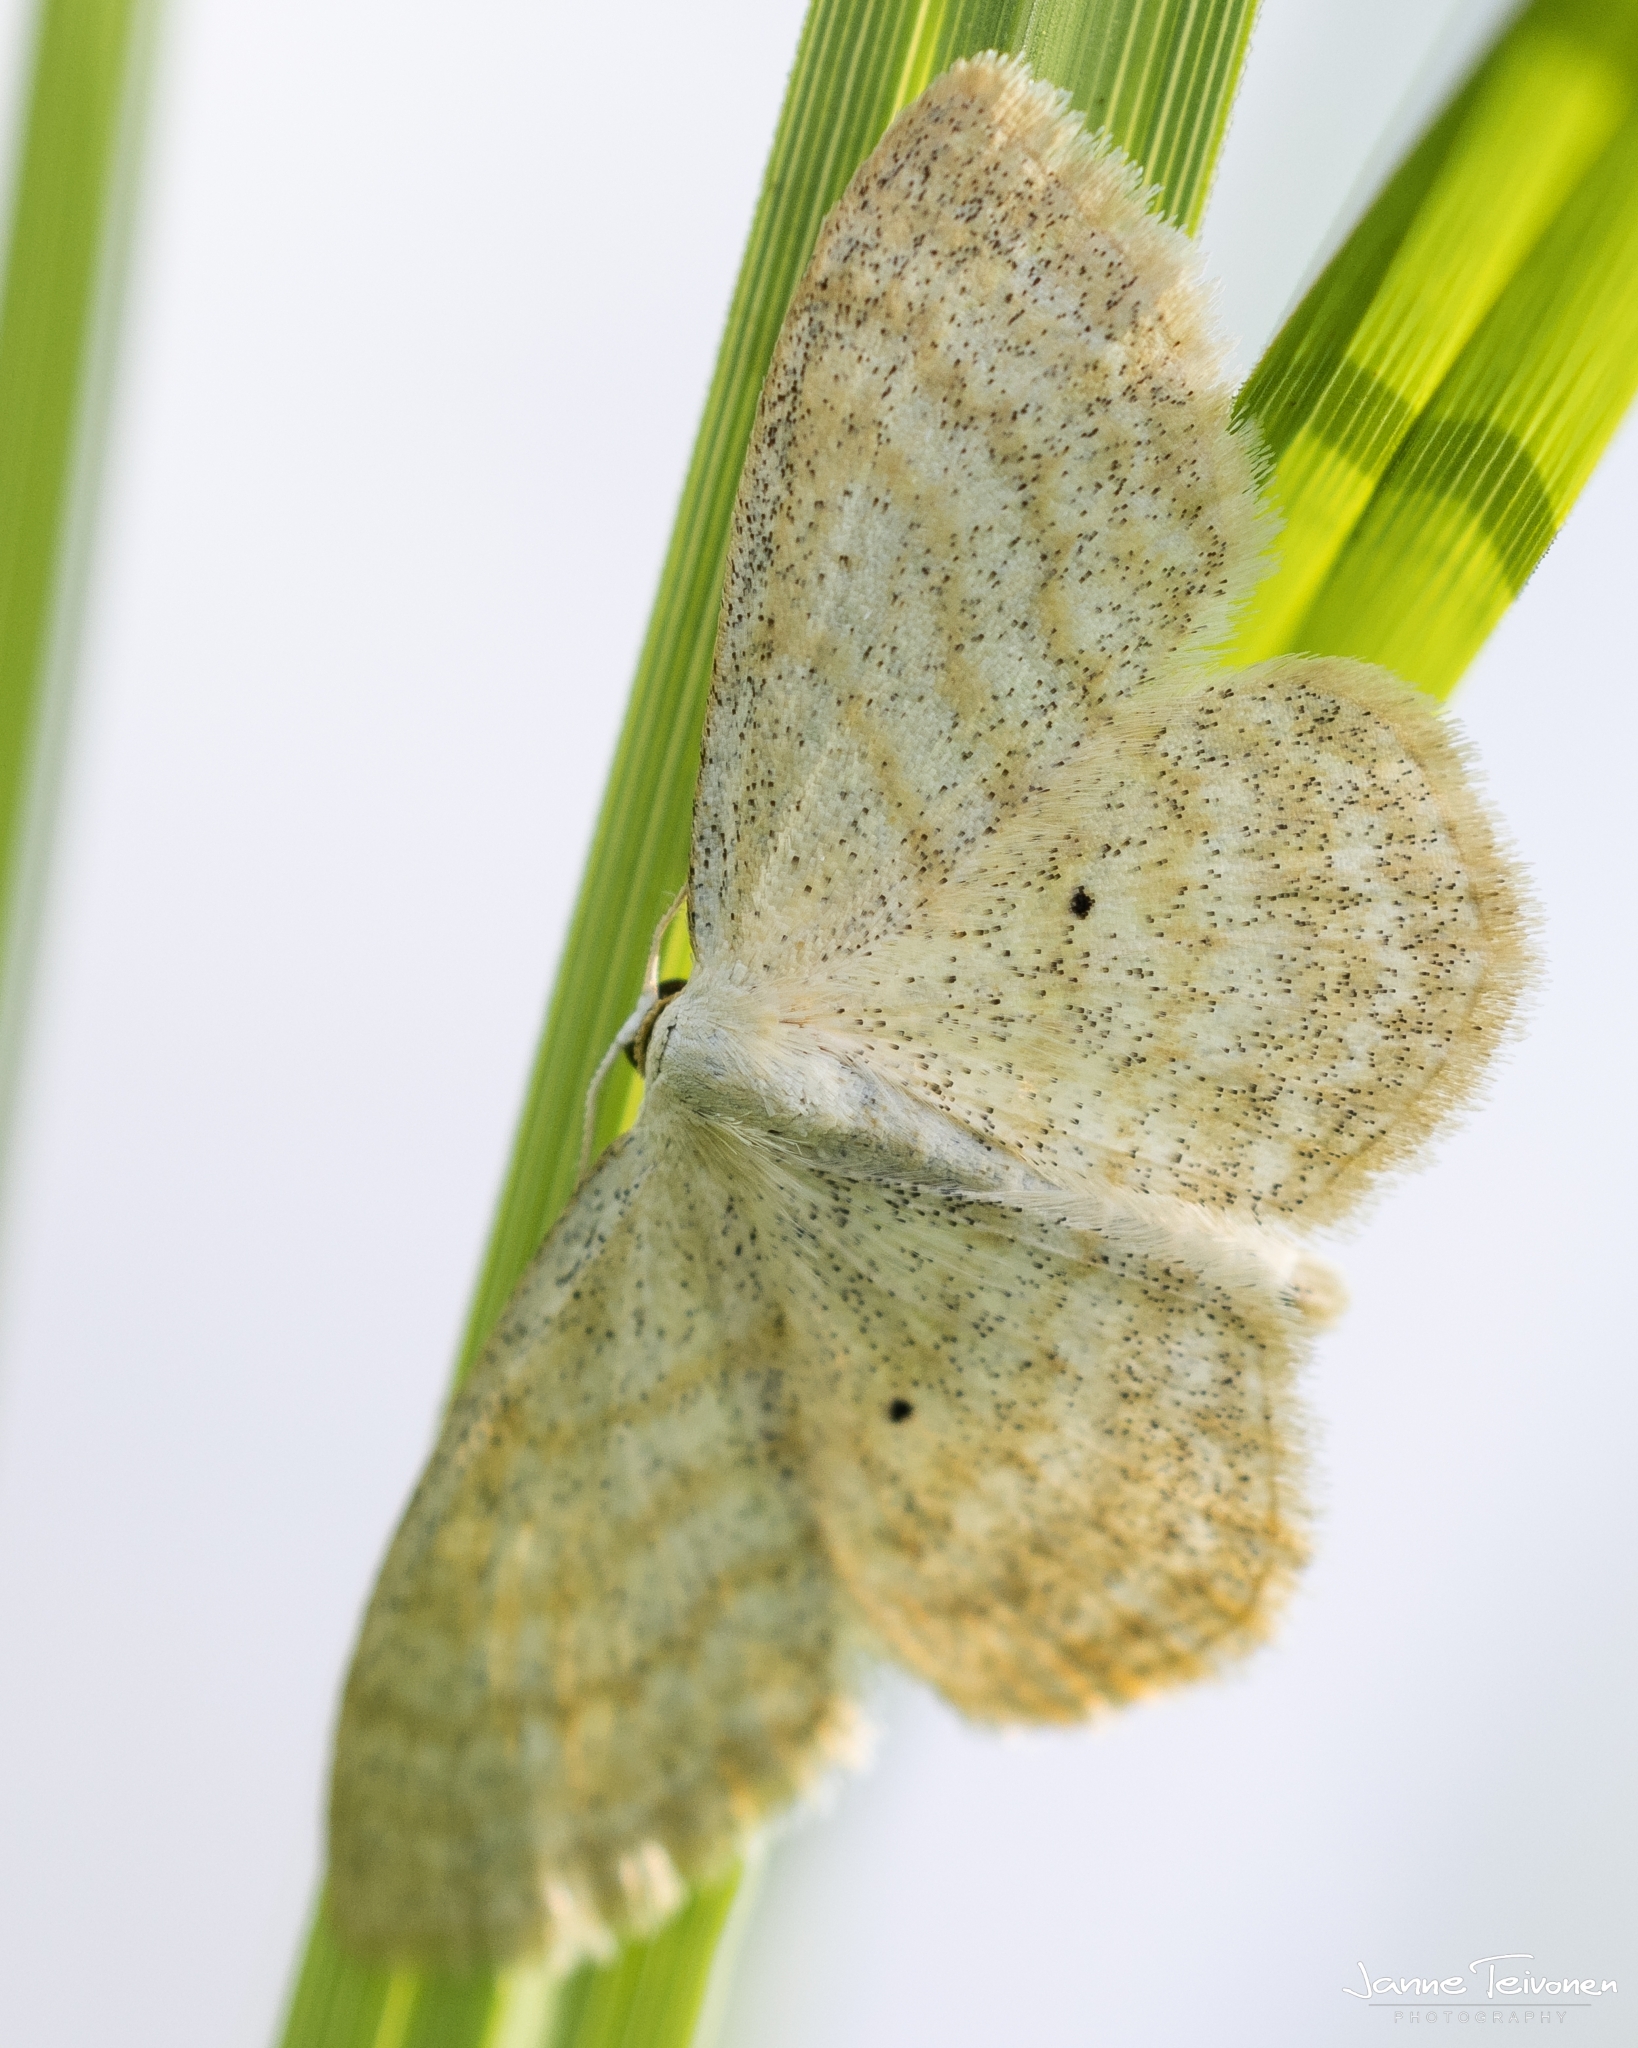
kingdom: Animalia
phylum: Arthropoda
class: Insecta
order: Lepidoptera
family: Geometridae
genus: Scopula
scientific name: Scopula immutata
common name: Lesser cream wave
